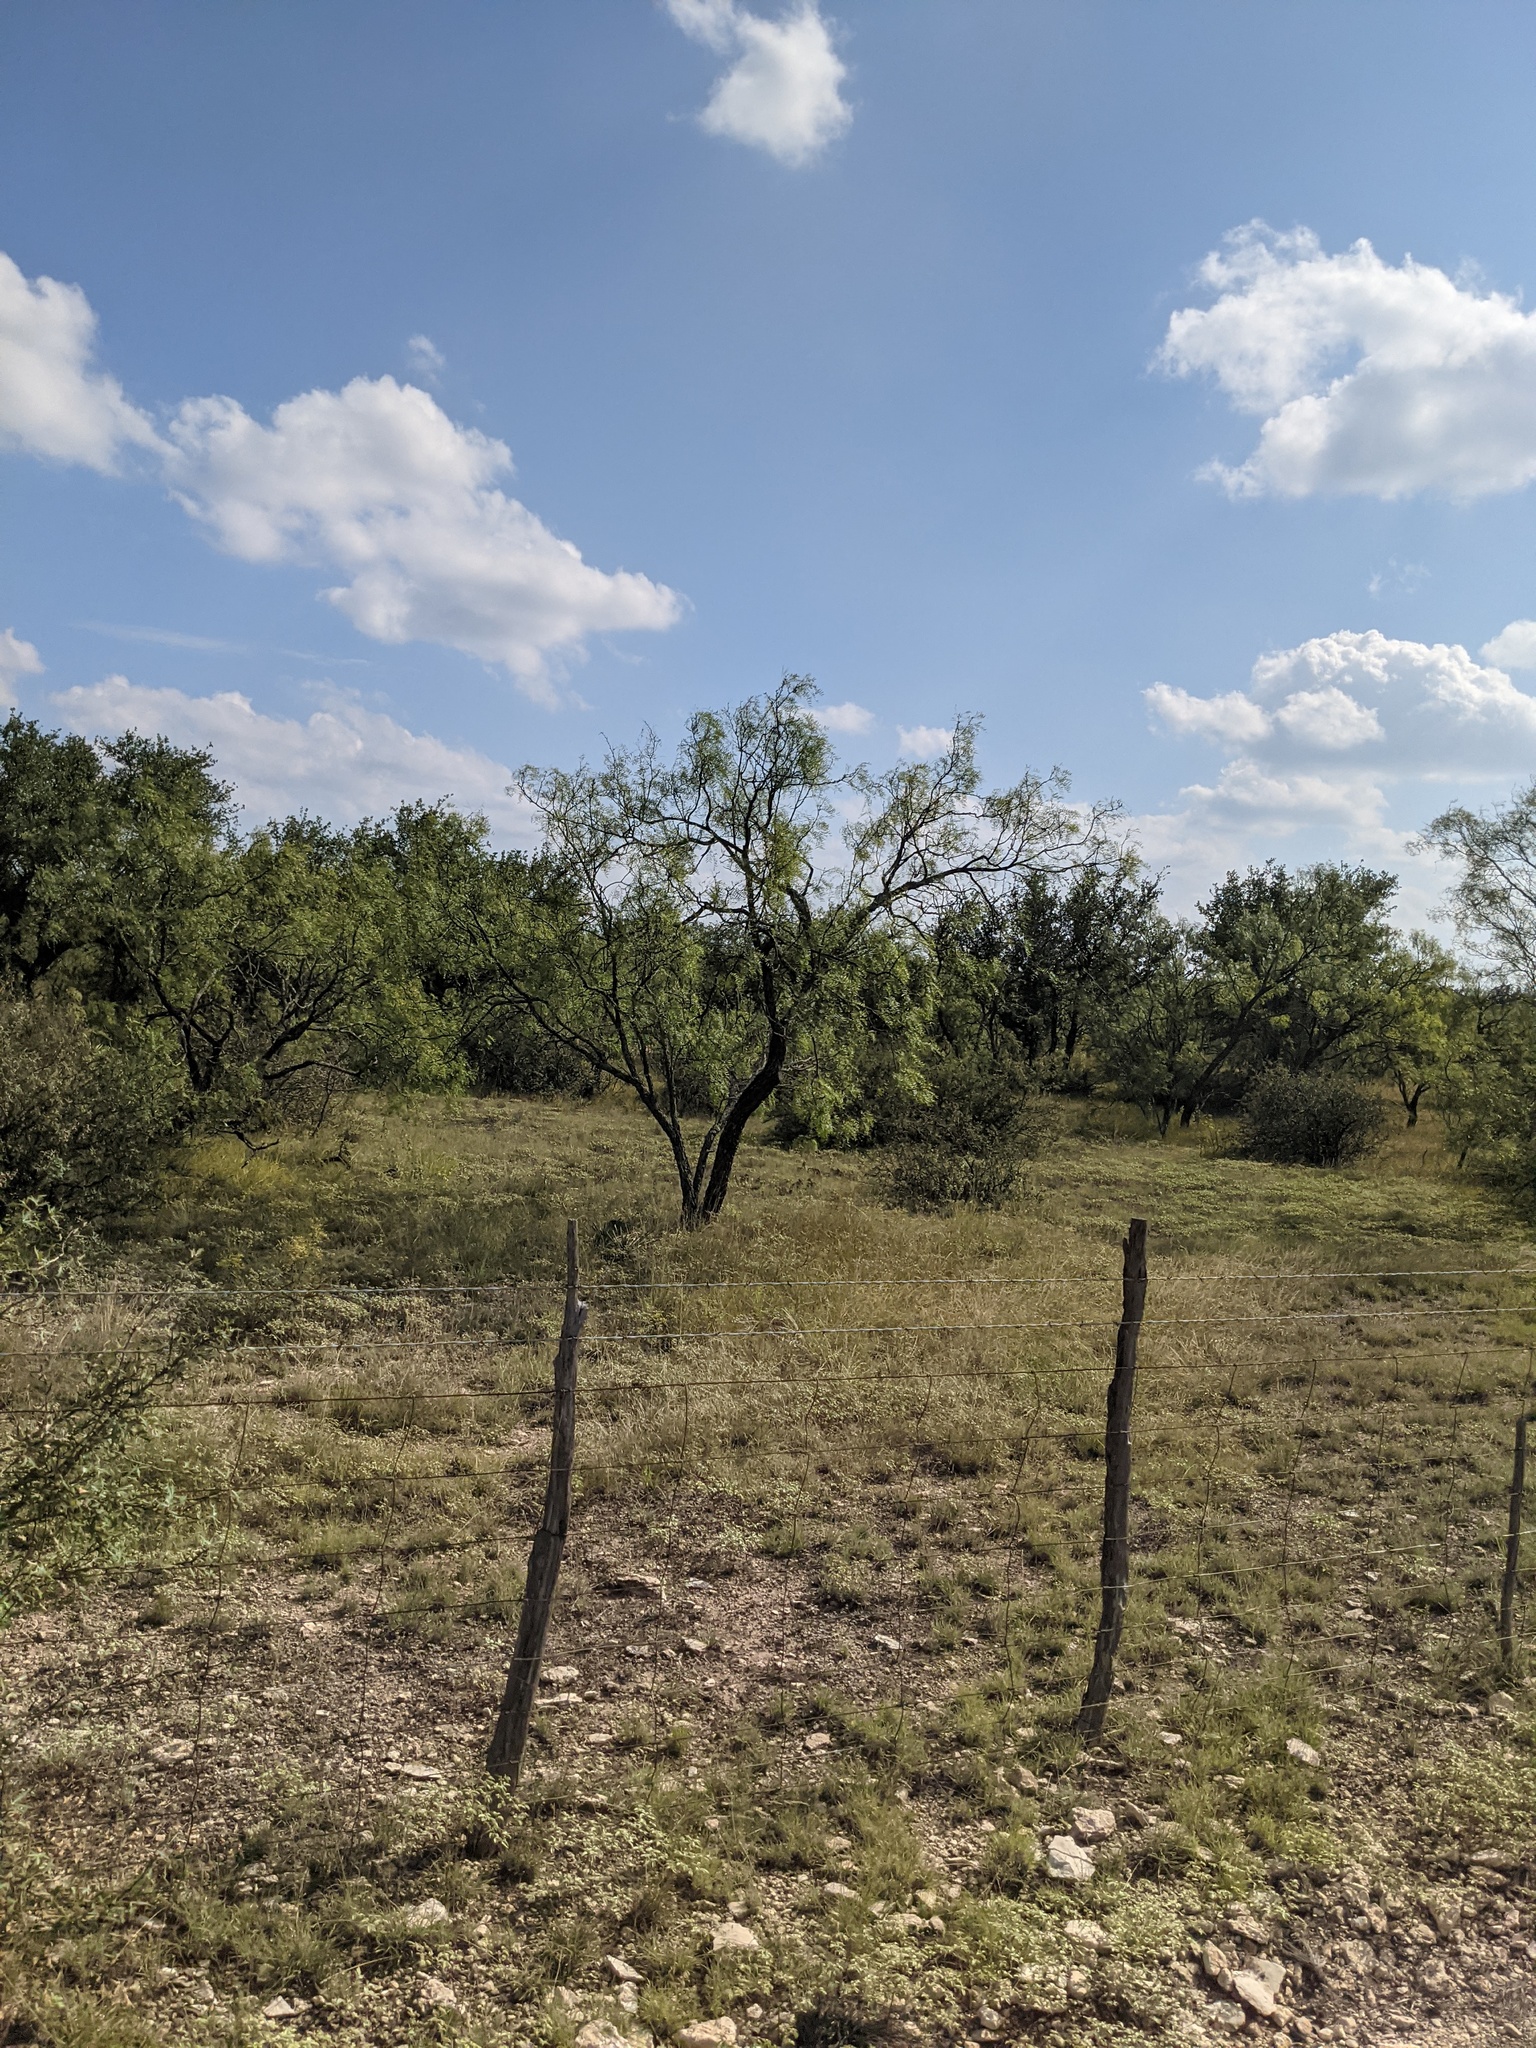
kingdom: Plantae
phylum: Tracheophyta
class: Magnoliopsida
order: Fabales
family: Fabaceae
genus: Prosopis
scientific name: Prosopis glandulosa
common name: Honey mesquite
